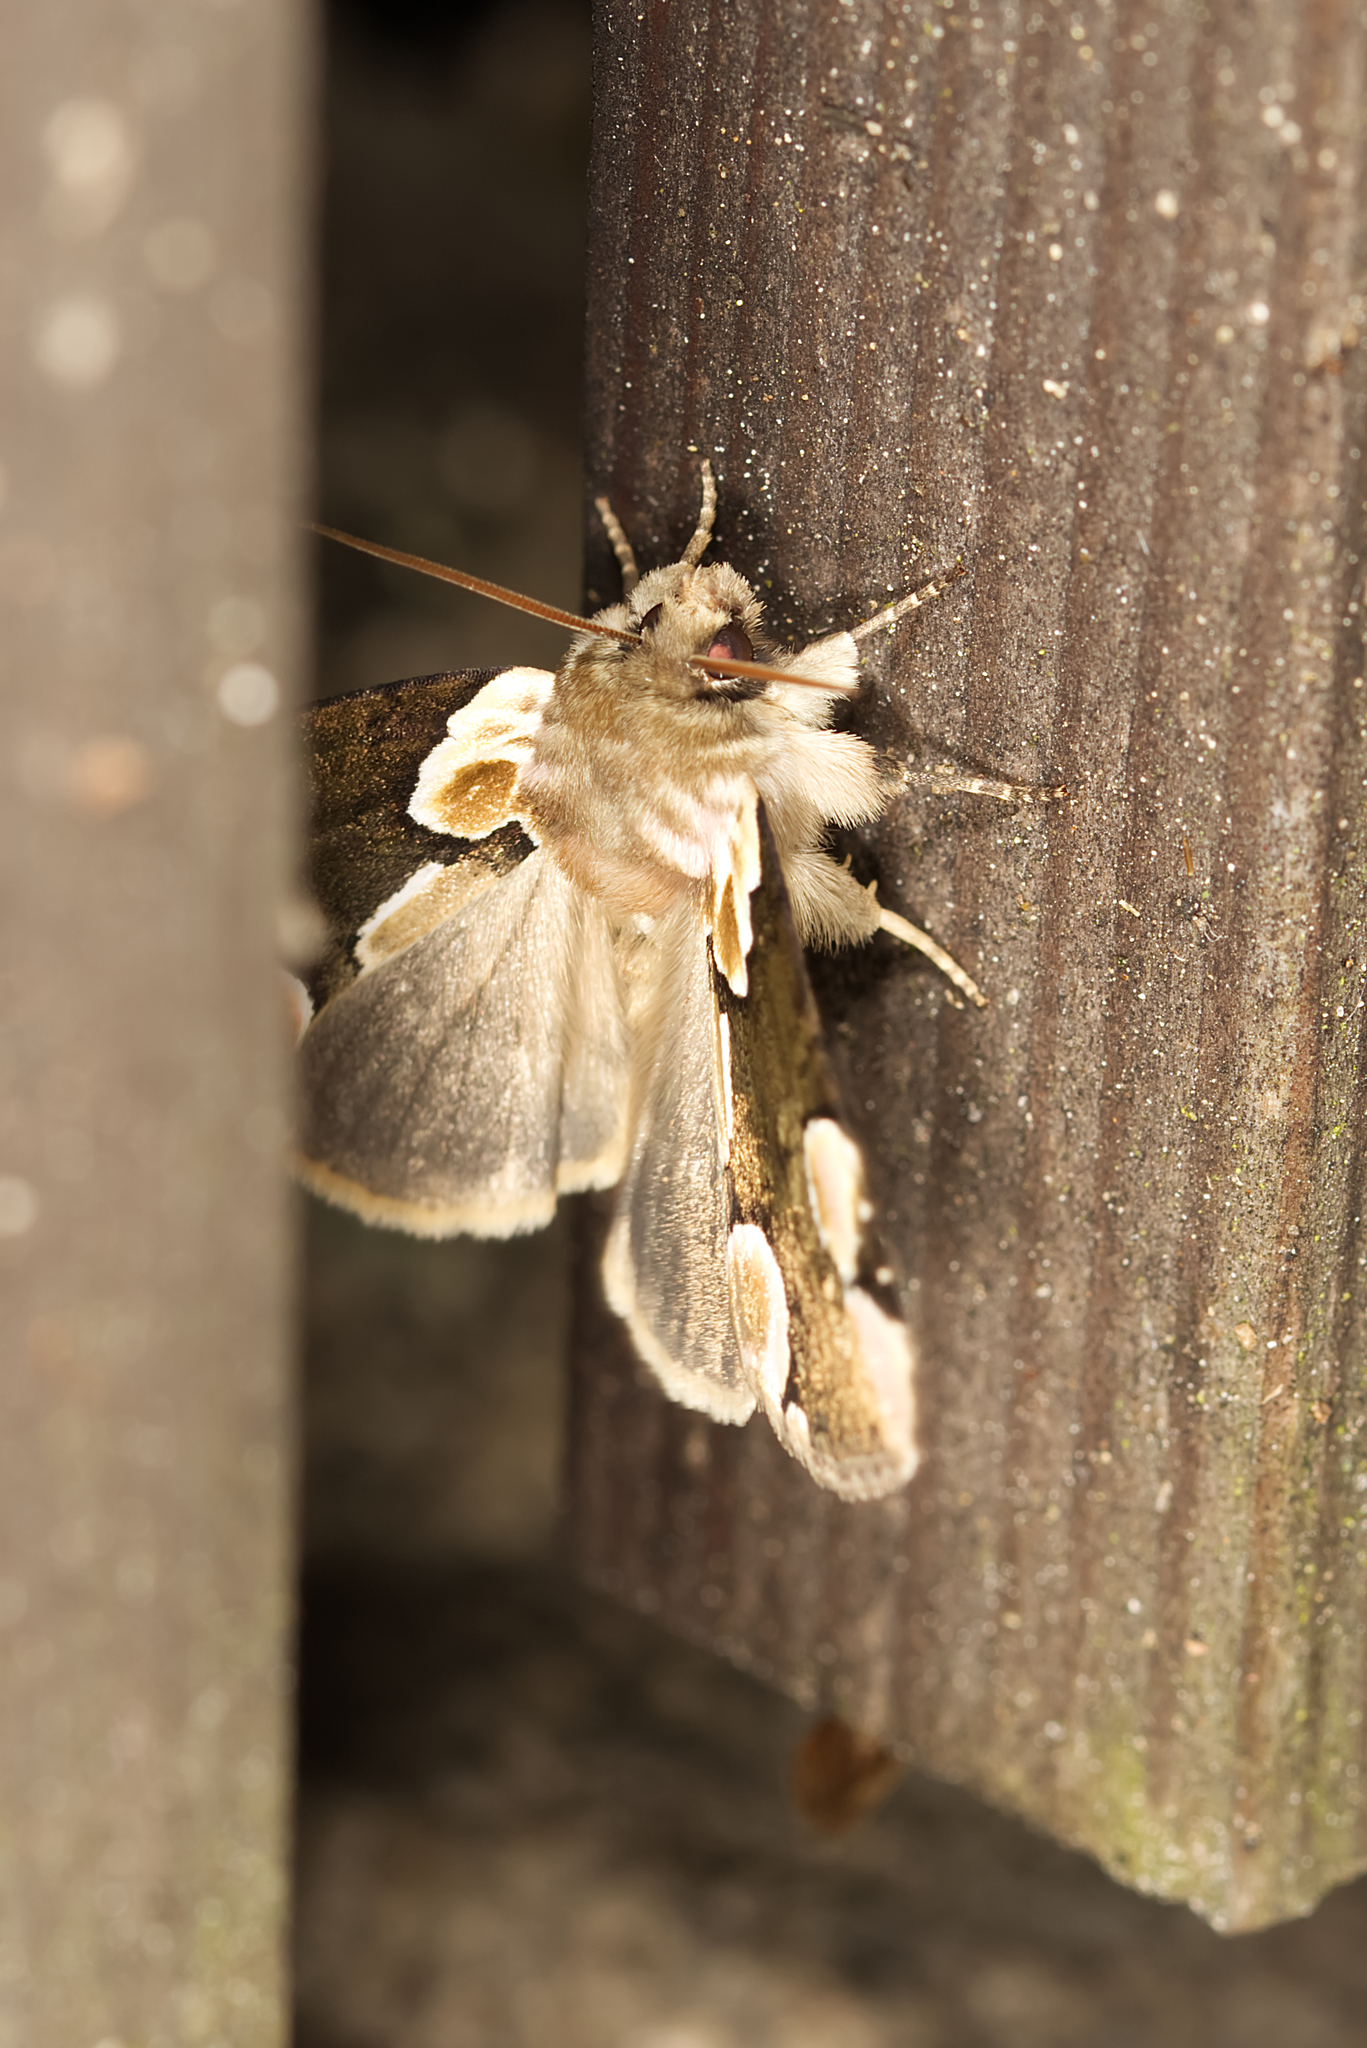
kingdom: Animalia
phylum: Arthropoda
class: Insecta
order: Lepidoptera
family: Drepanidae
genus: Thyatira
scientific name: Thyatira batis
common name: Peach blossom
